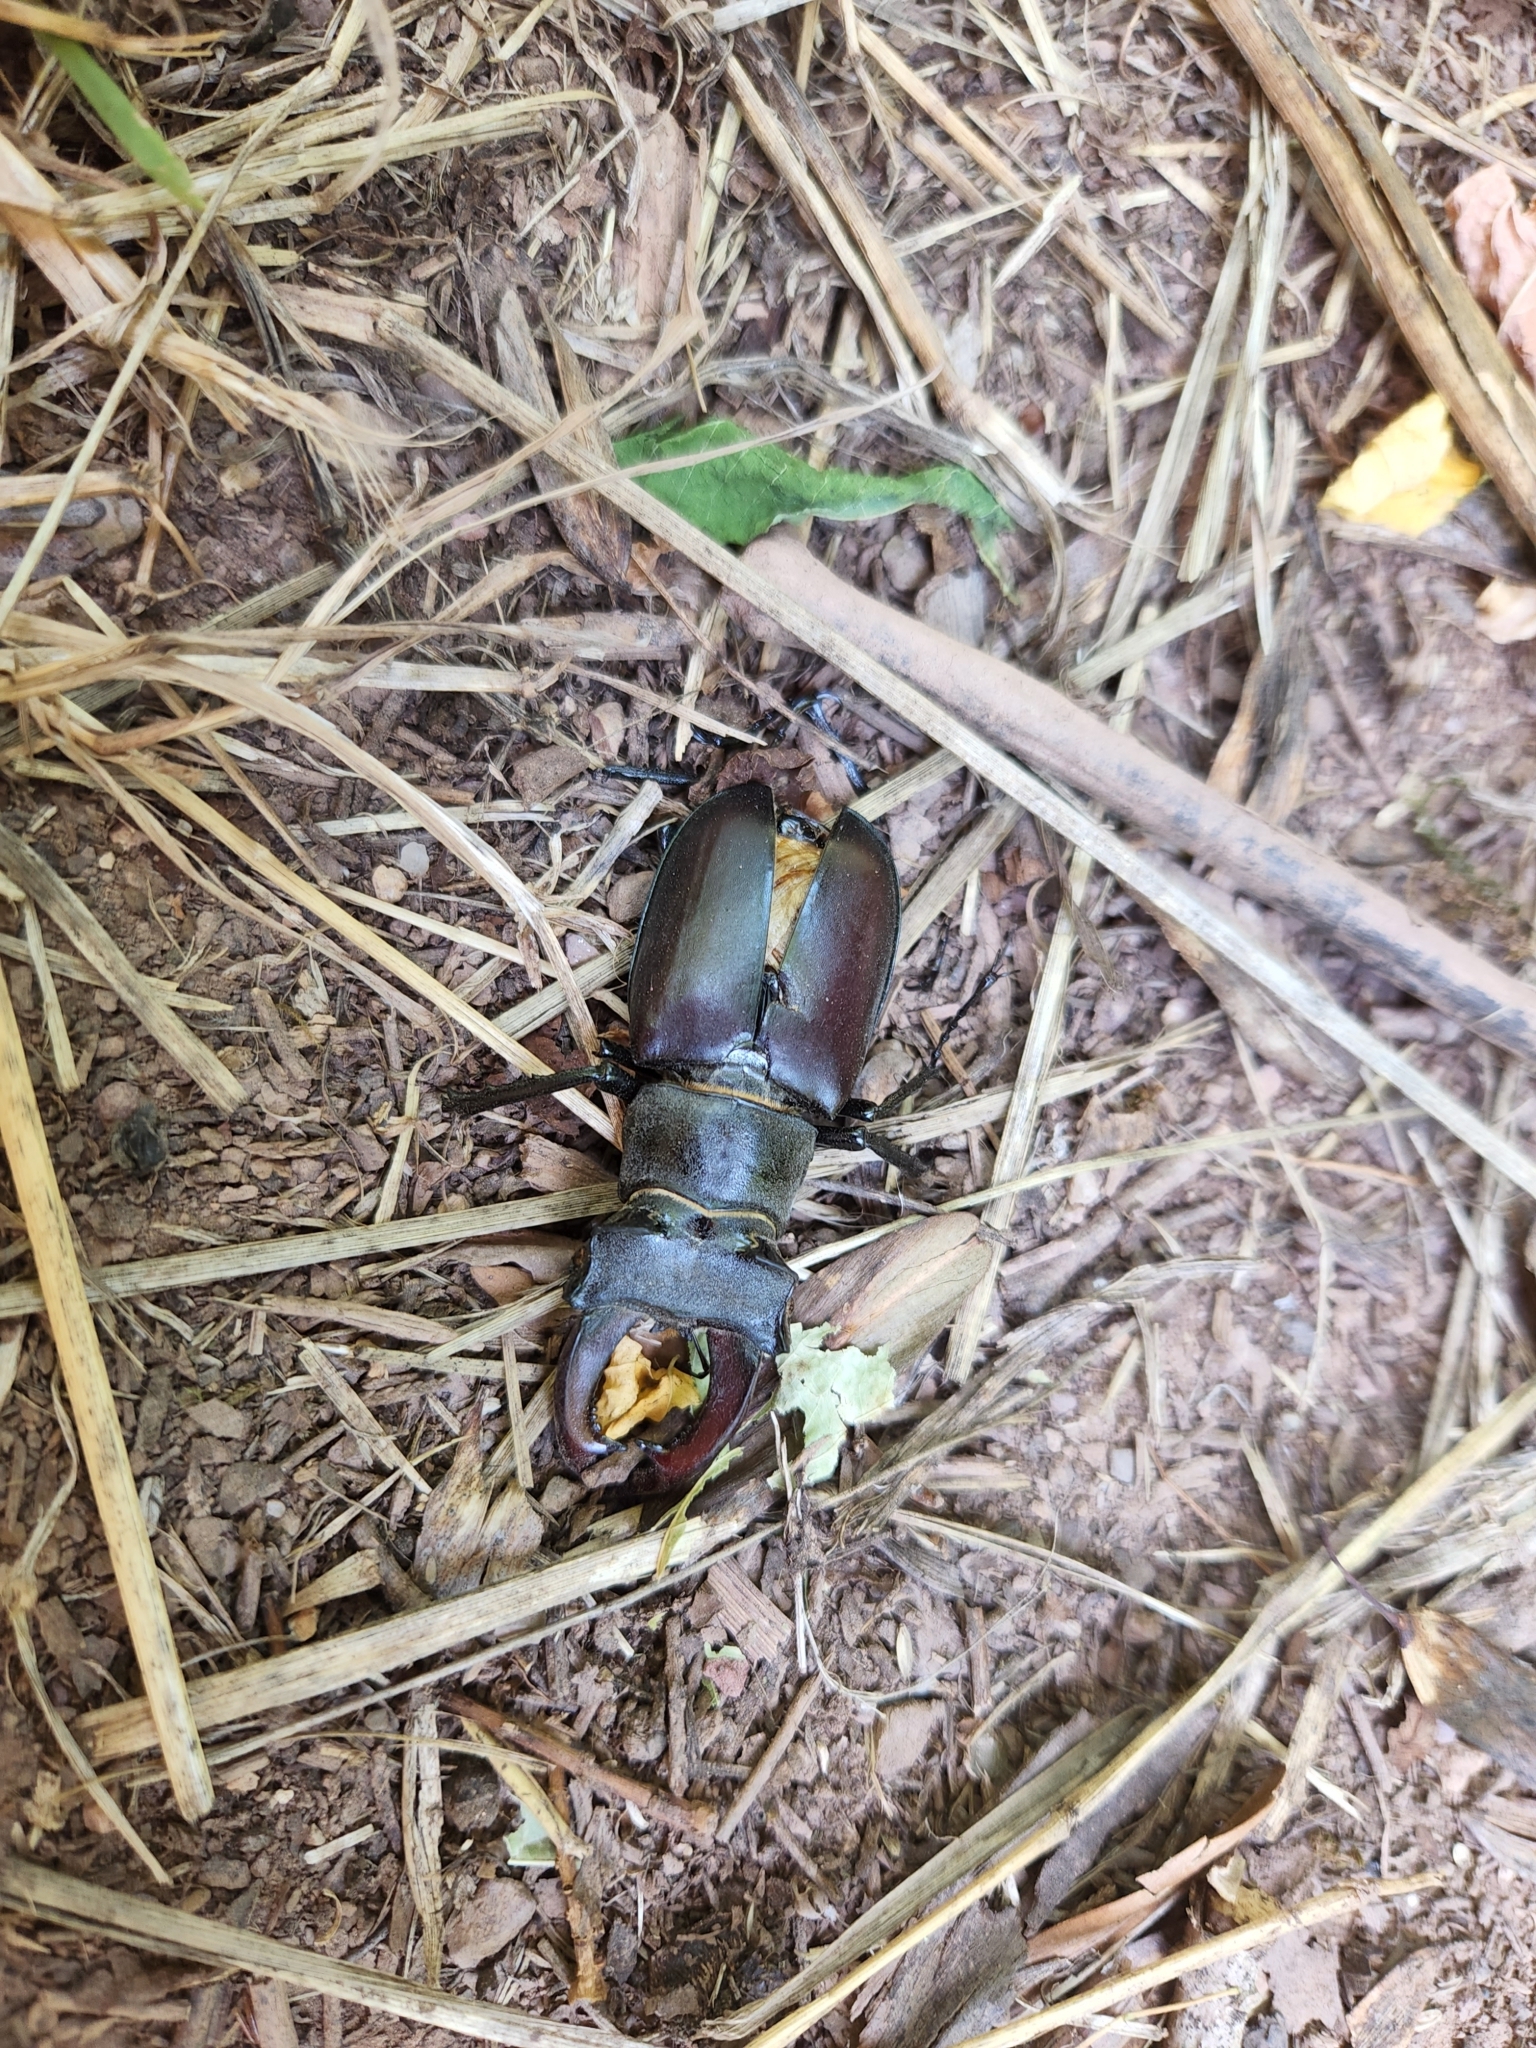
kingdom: Animalia
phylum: Arthropoda
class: Insecta
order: Coleoptera
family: Lucanidae
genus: Lucanus
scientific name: Lucanus cervus
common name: Stag beetle
